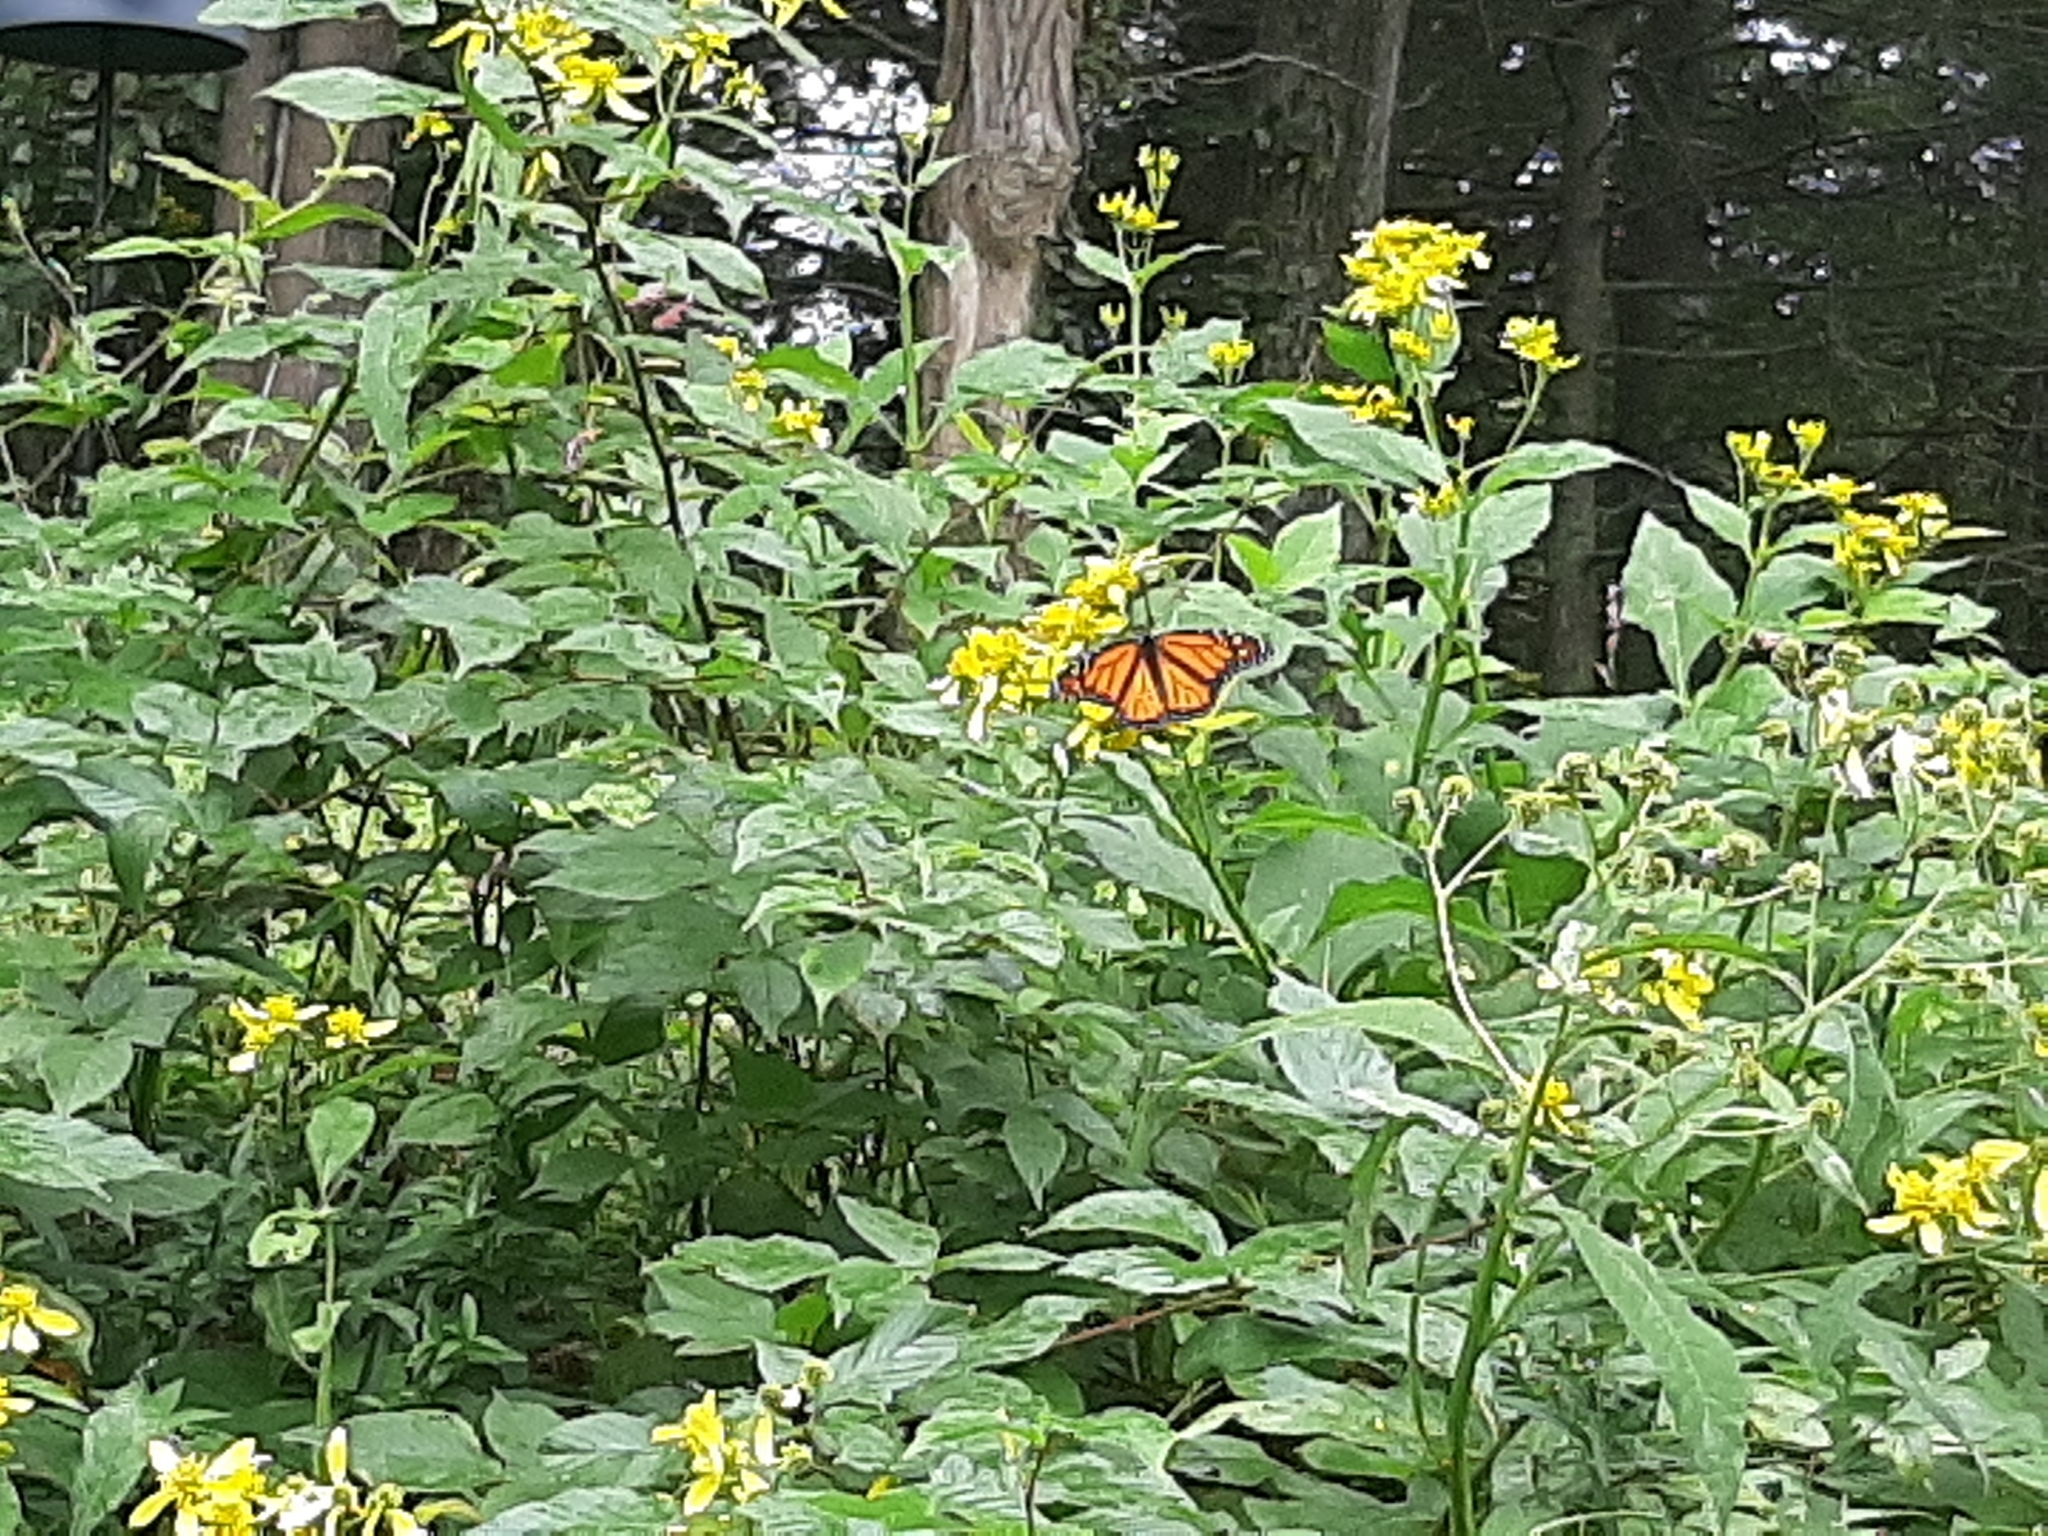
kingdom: Animalia
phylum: Arthropoda
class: Insecta
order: Lepidoptera
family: Nymphalidae
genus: Danaus
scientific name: Danaus plexippus
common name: Monarch
